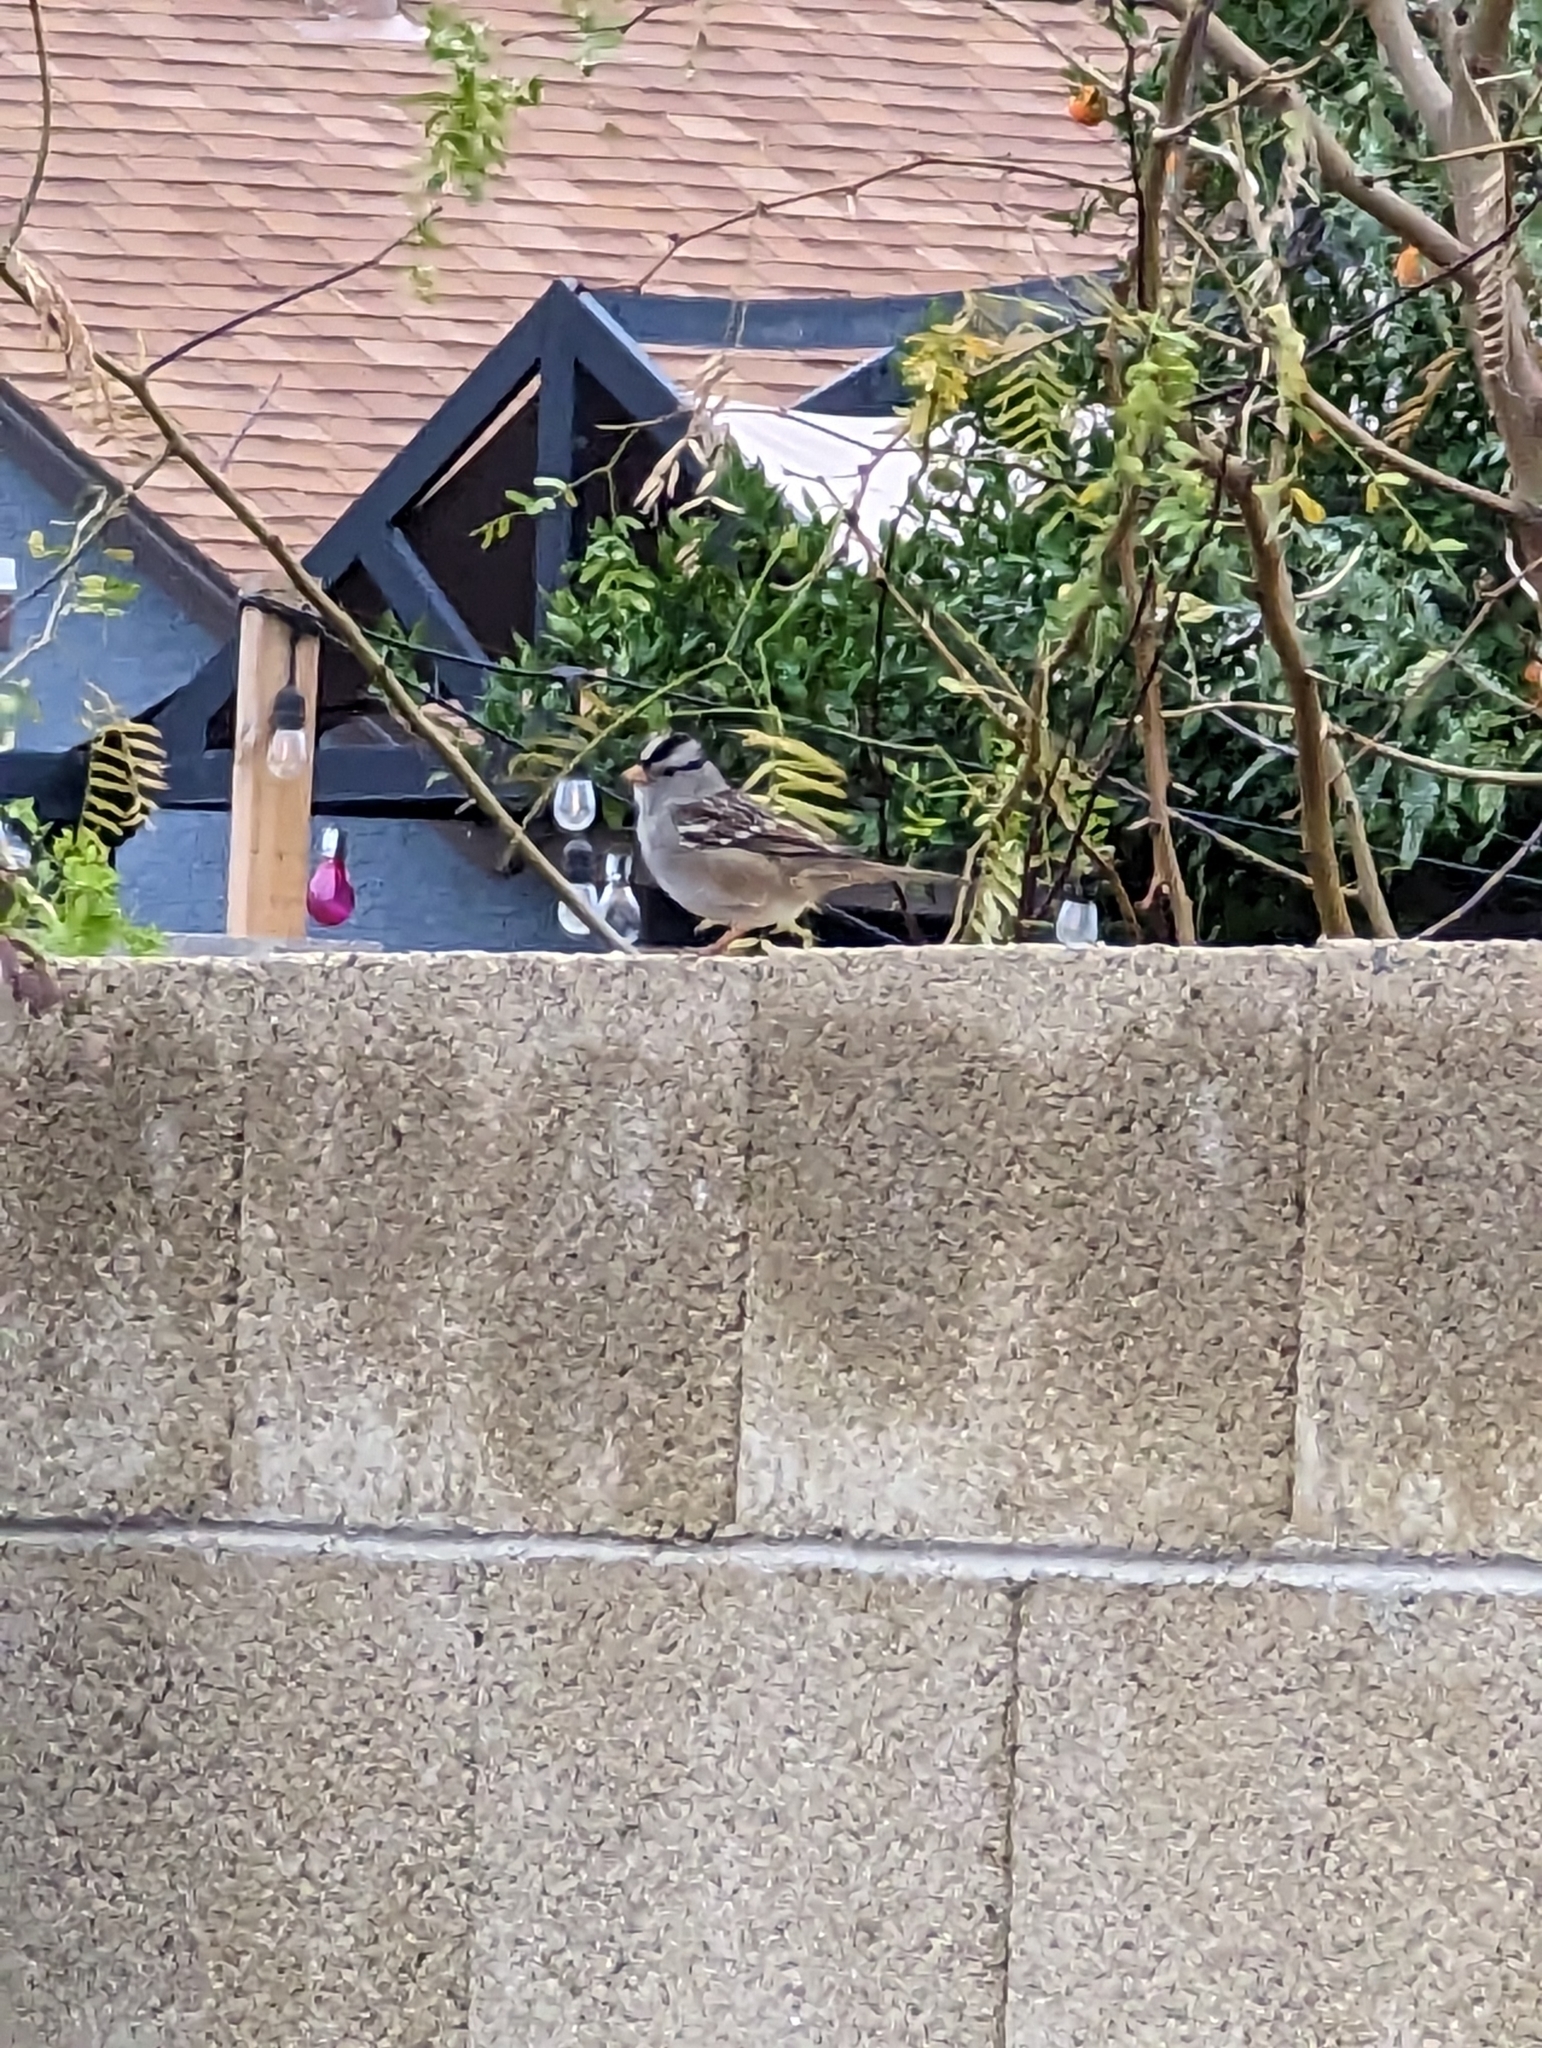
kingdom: Animalia
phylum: Chordata
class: Aves
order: Passeriformes
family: Passerellidae
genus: Zonotrichia
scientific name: Zonotrichia leucophrys
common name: White-crowned sparrow
